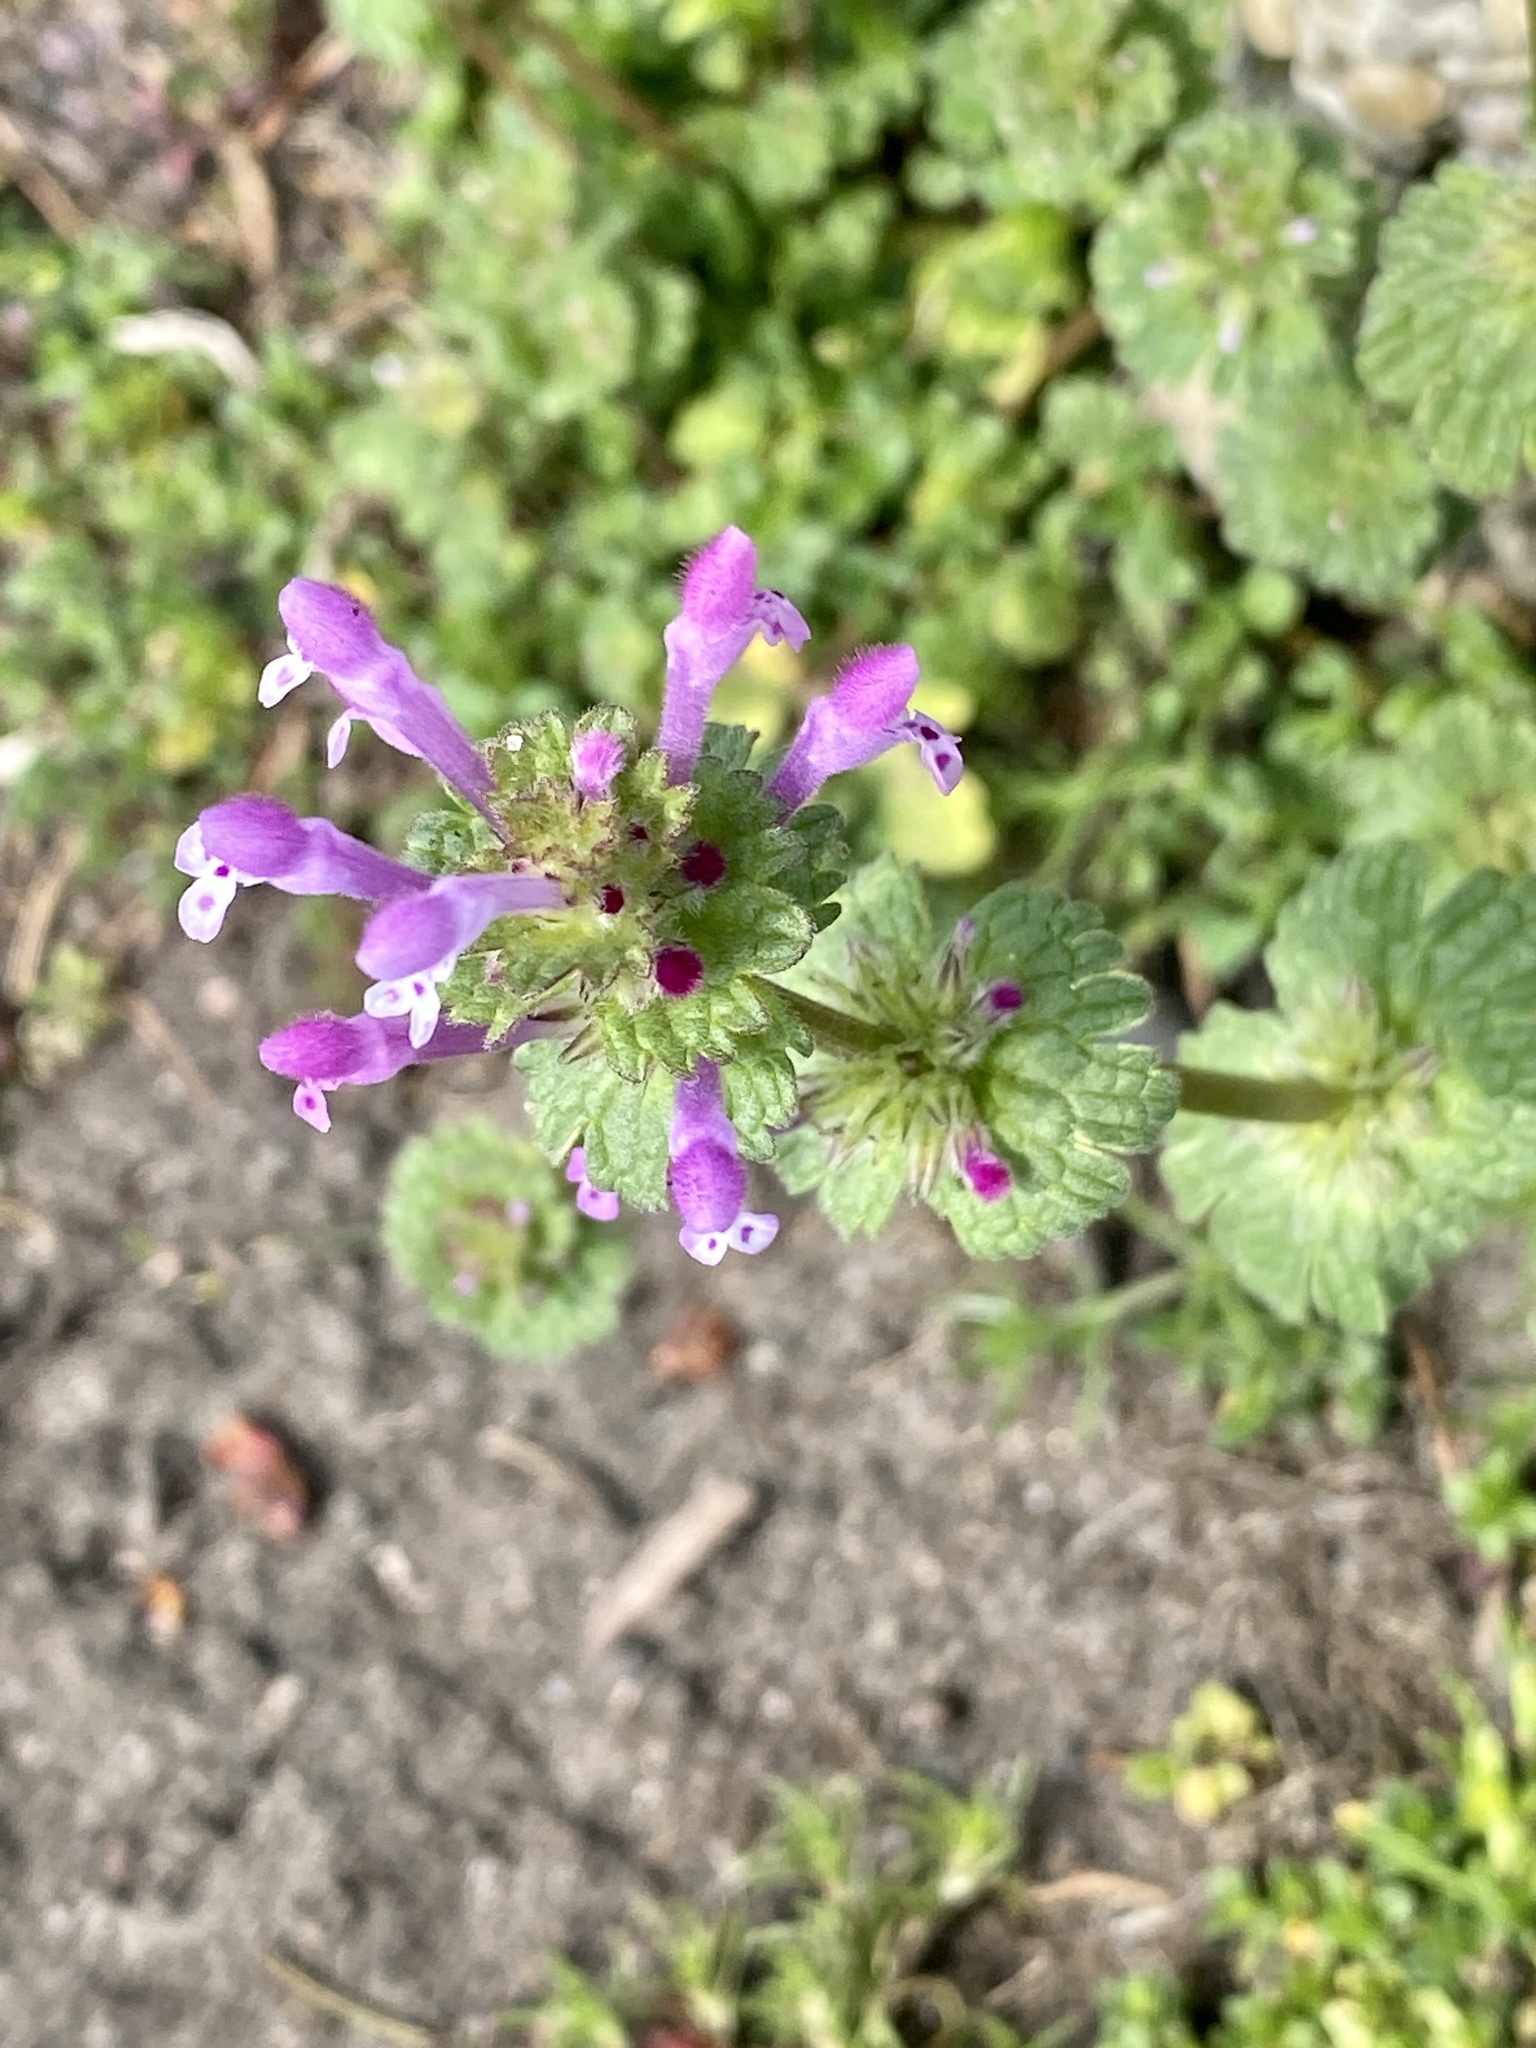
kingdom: Plantae
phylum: Tracheophyta
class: Magnoliopsida
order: Lamiales
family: Lamiaceae
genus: Lamium
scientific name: Lamium amplexicaule
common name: Henbit dead-nettle
